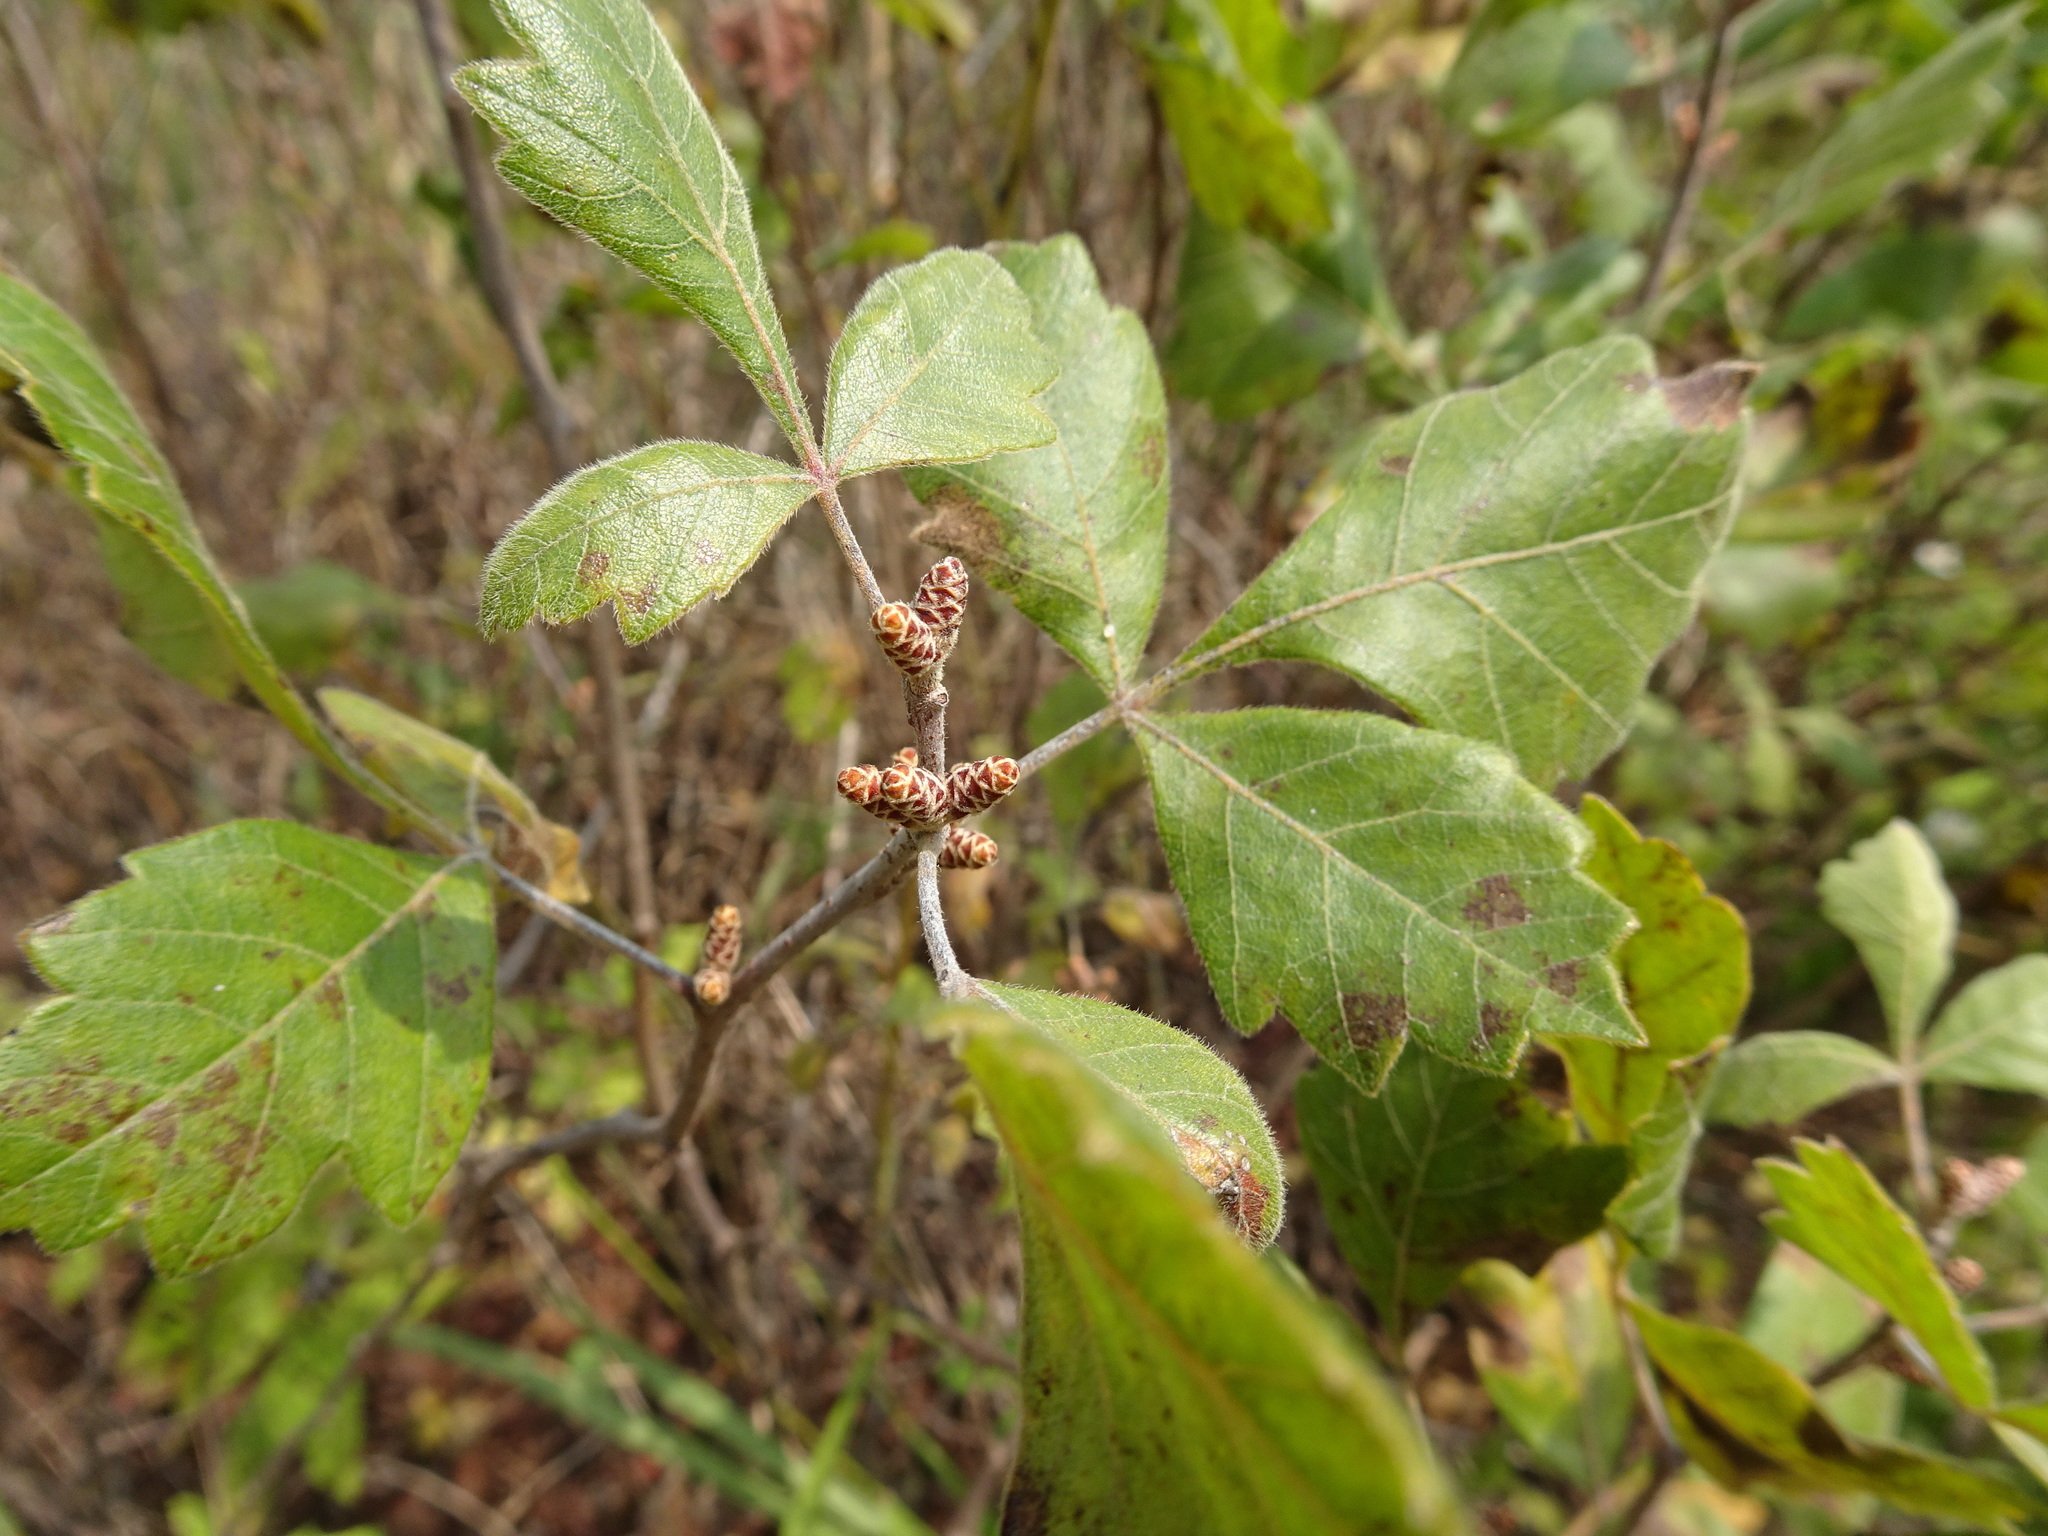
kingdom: Plantae
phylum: Tracheophyta
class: Magnoliopsida
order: Sapindales
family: Anacardiaceae
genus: Rhus
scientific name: Rhus aromatica
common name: Aromatic sumac
